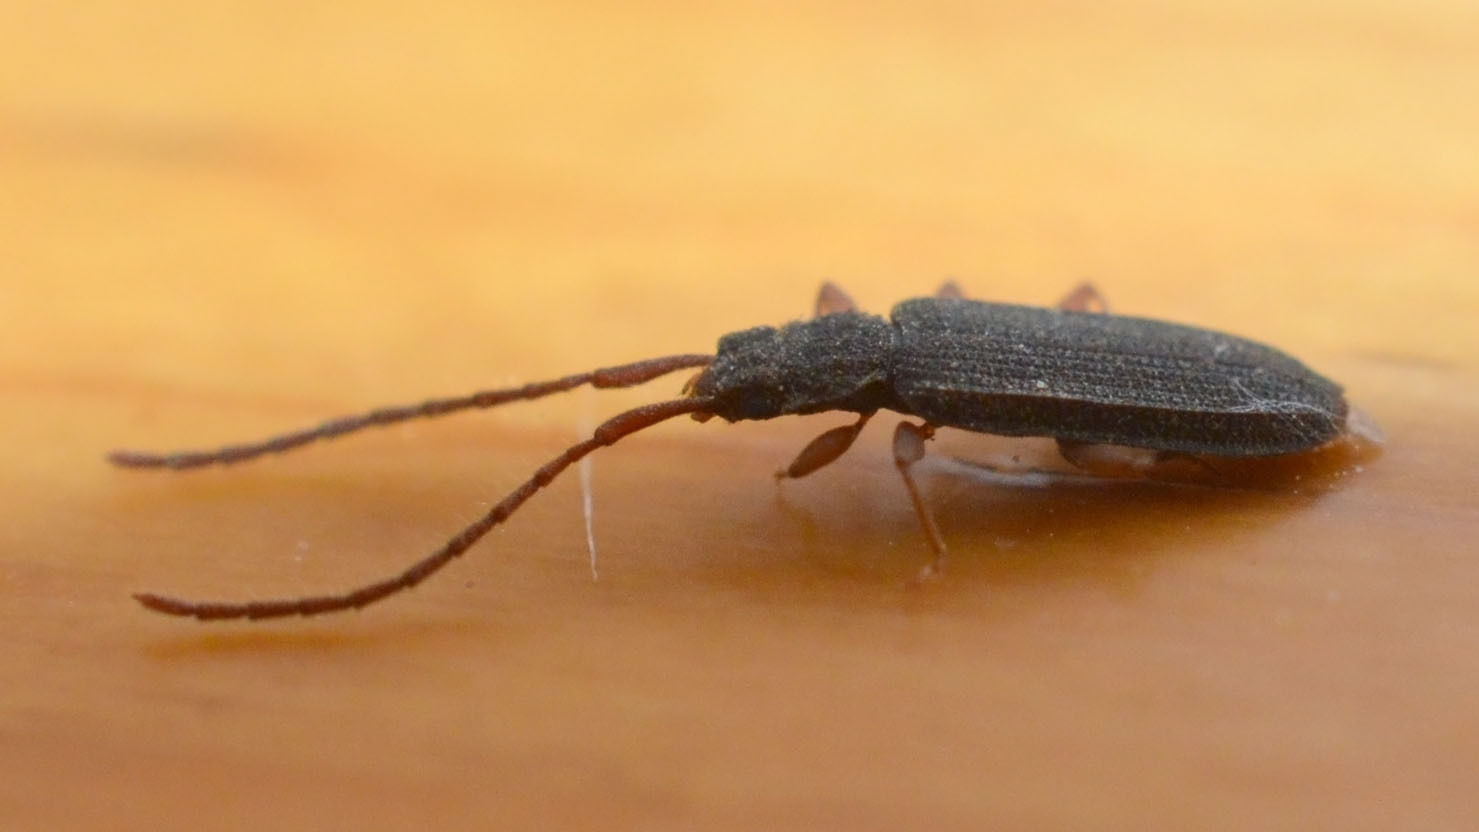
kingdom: Animalia
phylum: Arthropoda
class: Insecta
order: Coleoptera
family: Silvanidae
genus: Uleiota
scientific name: Uleiota planatus
